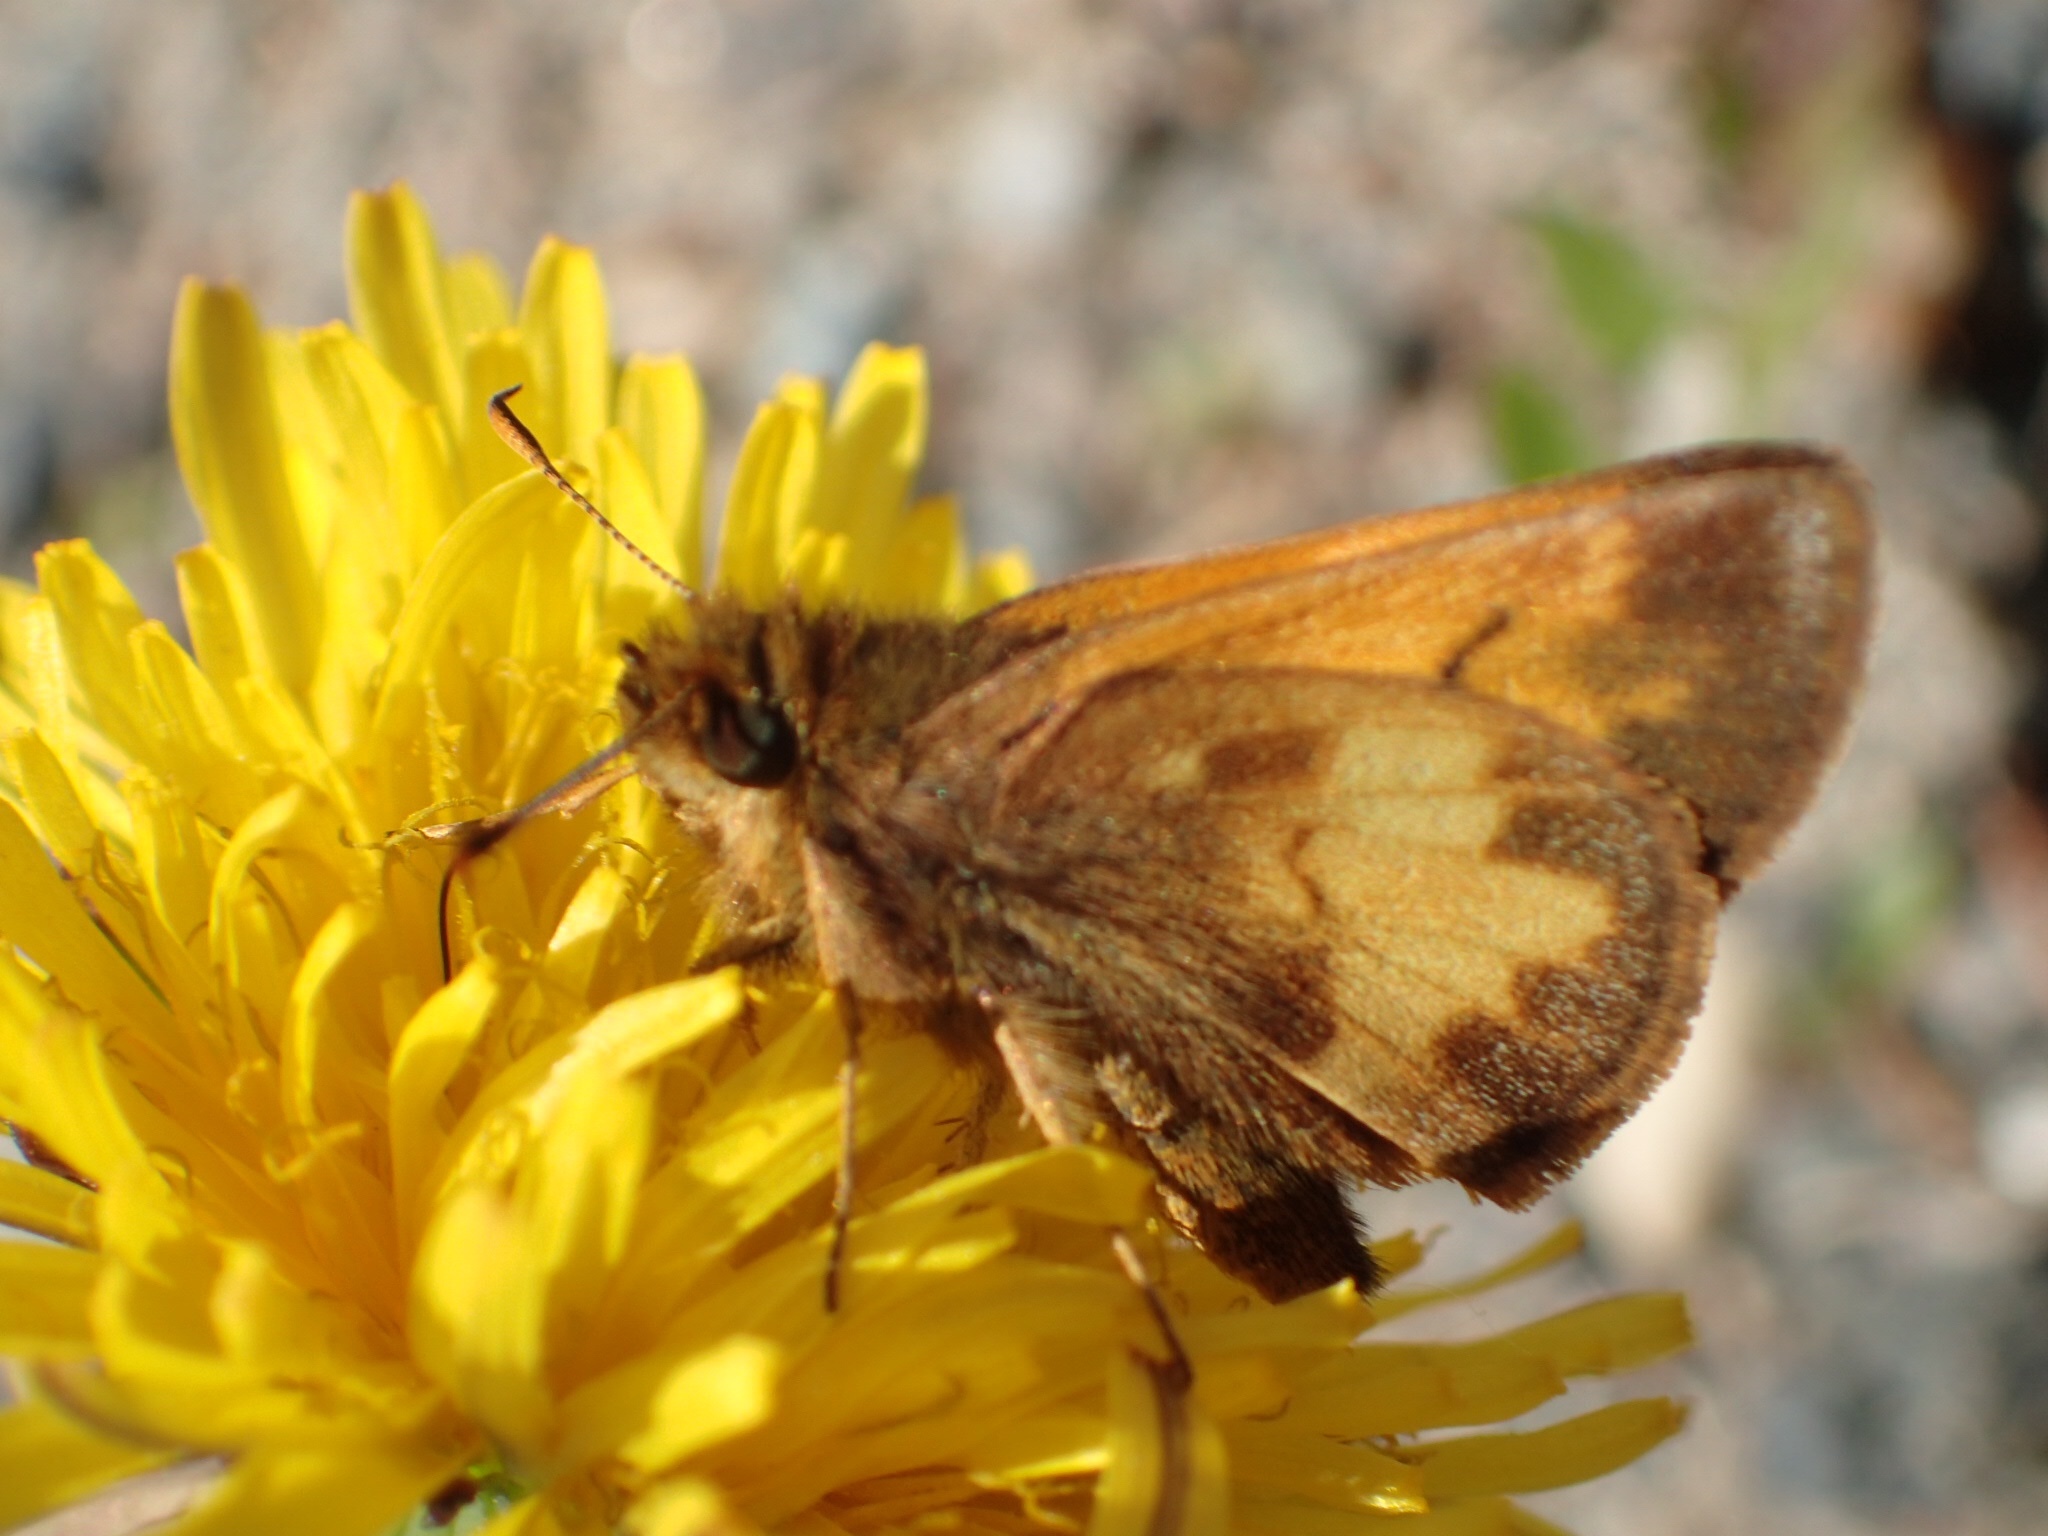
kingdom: Animalia
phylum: Arthropoda
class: Insecta
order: Lepidoptera
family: Hesperiidae
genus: Lon
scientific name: Lon hobomok
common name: Hobomok skipper
